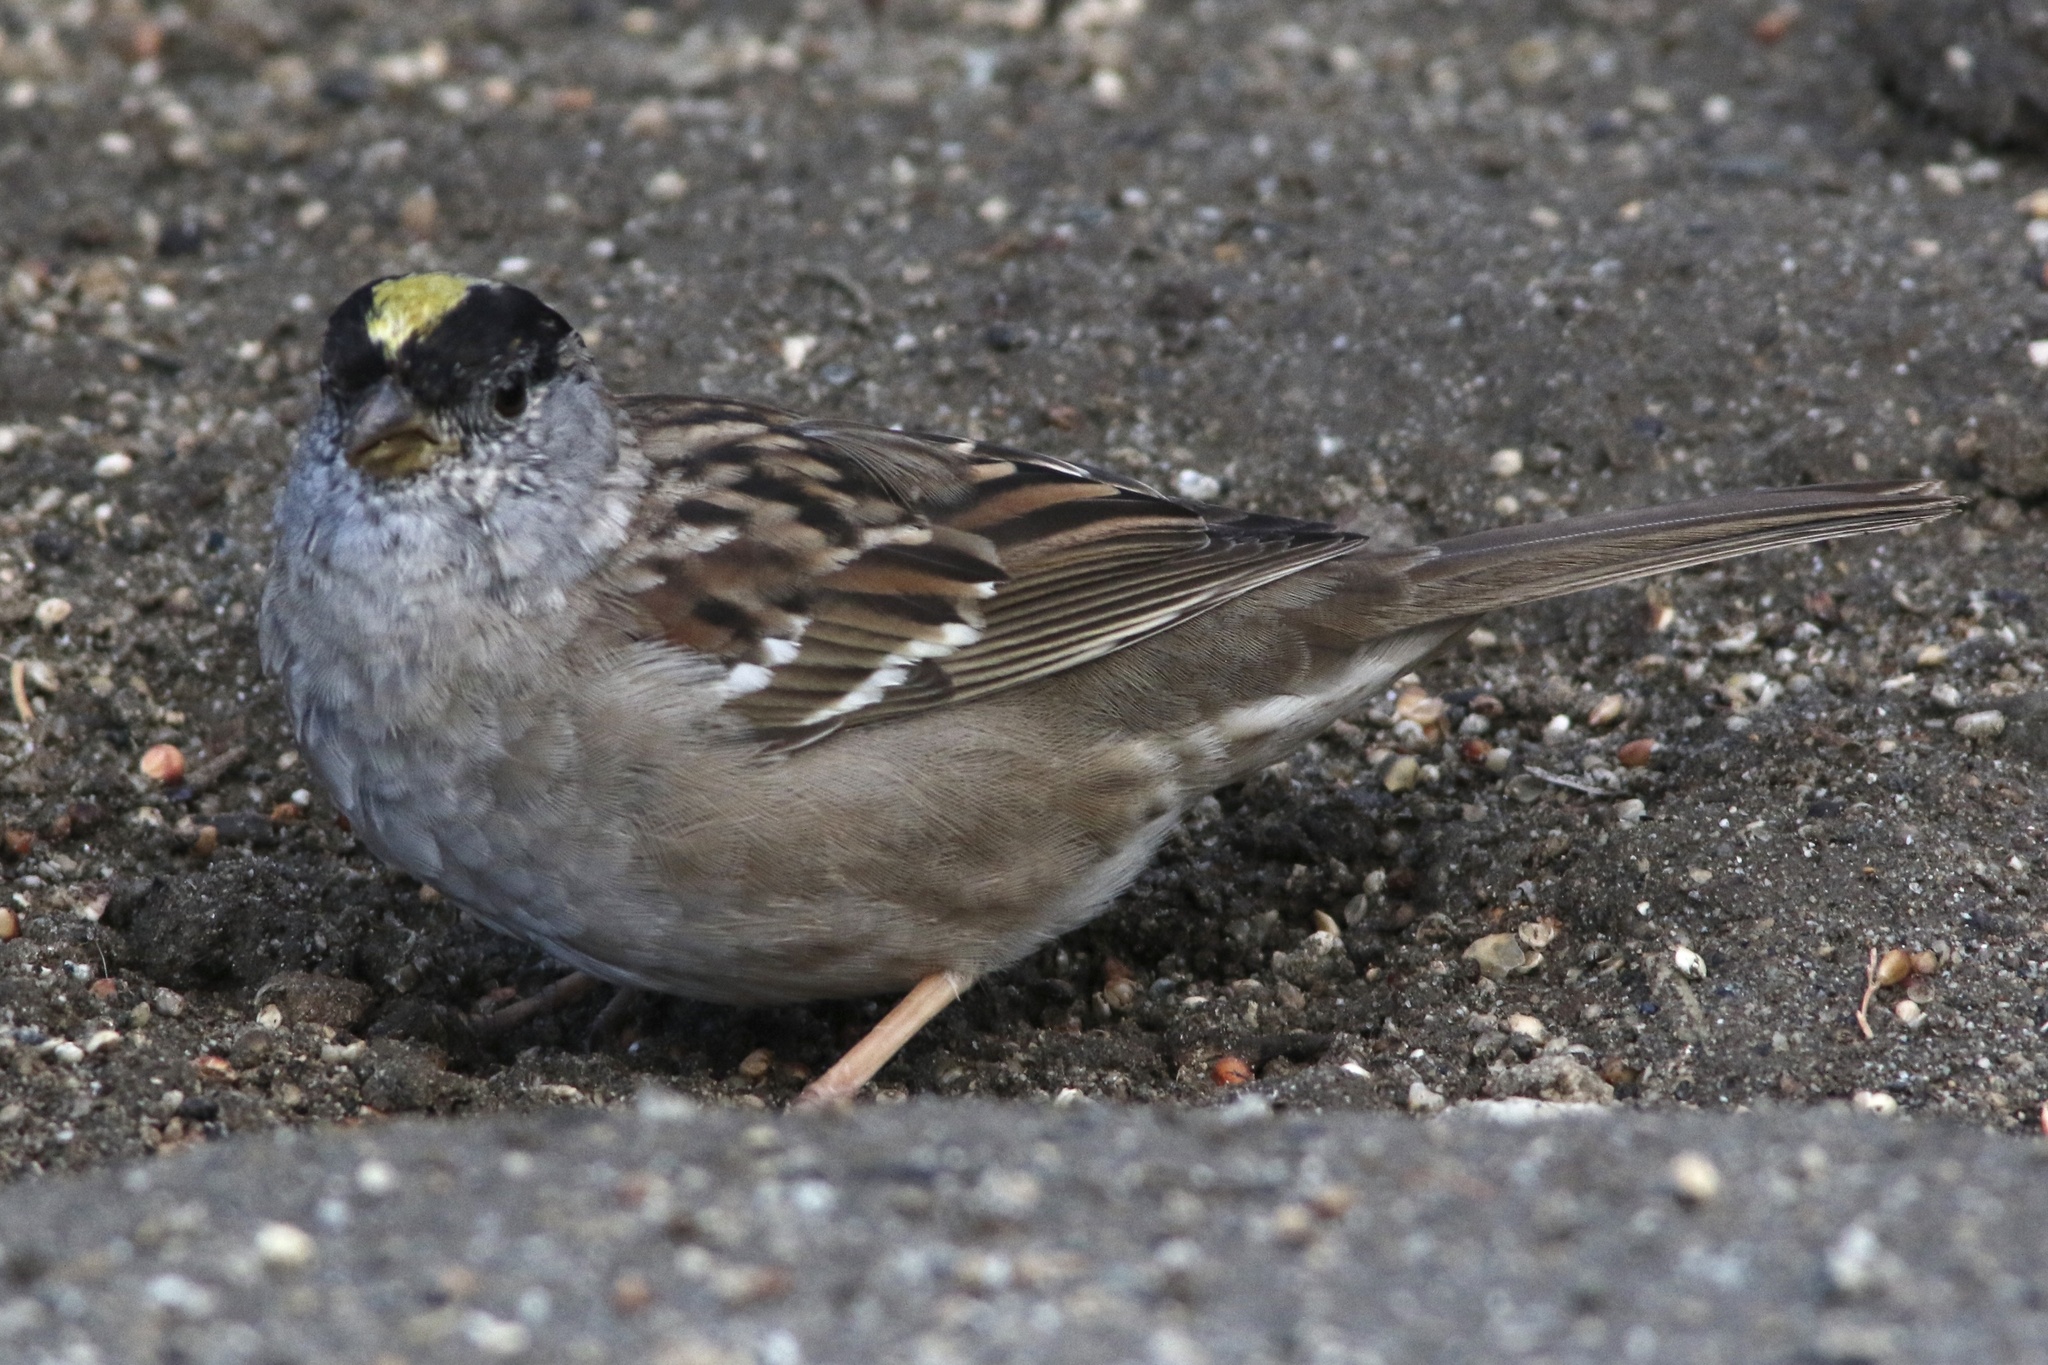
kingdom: Animalia
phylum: Chordata
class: Aves
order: Passeriformes
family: Passerellidae
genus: Zonotrichia
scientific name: Zonotrichia atricapilla
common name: Golden-crowned sparrow
